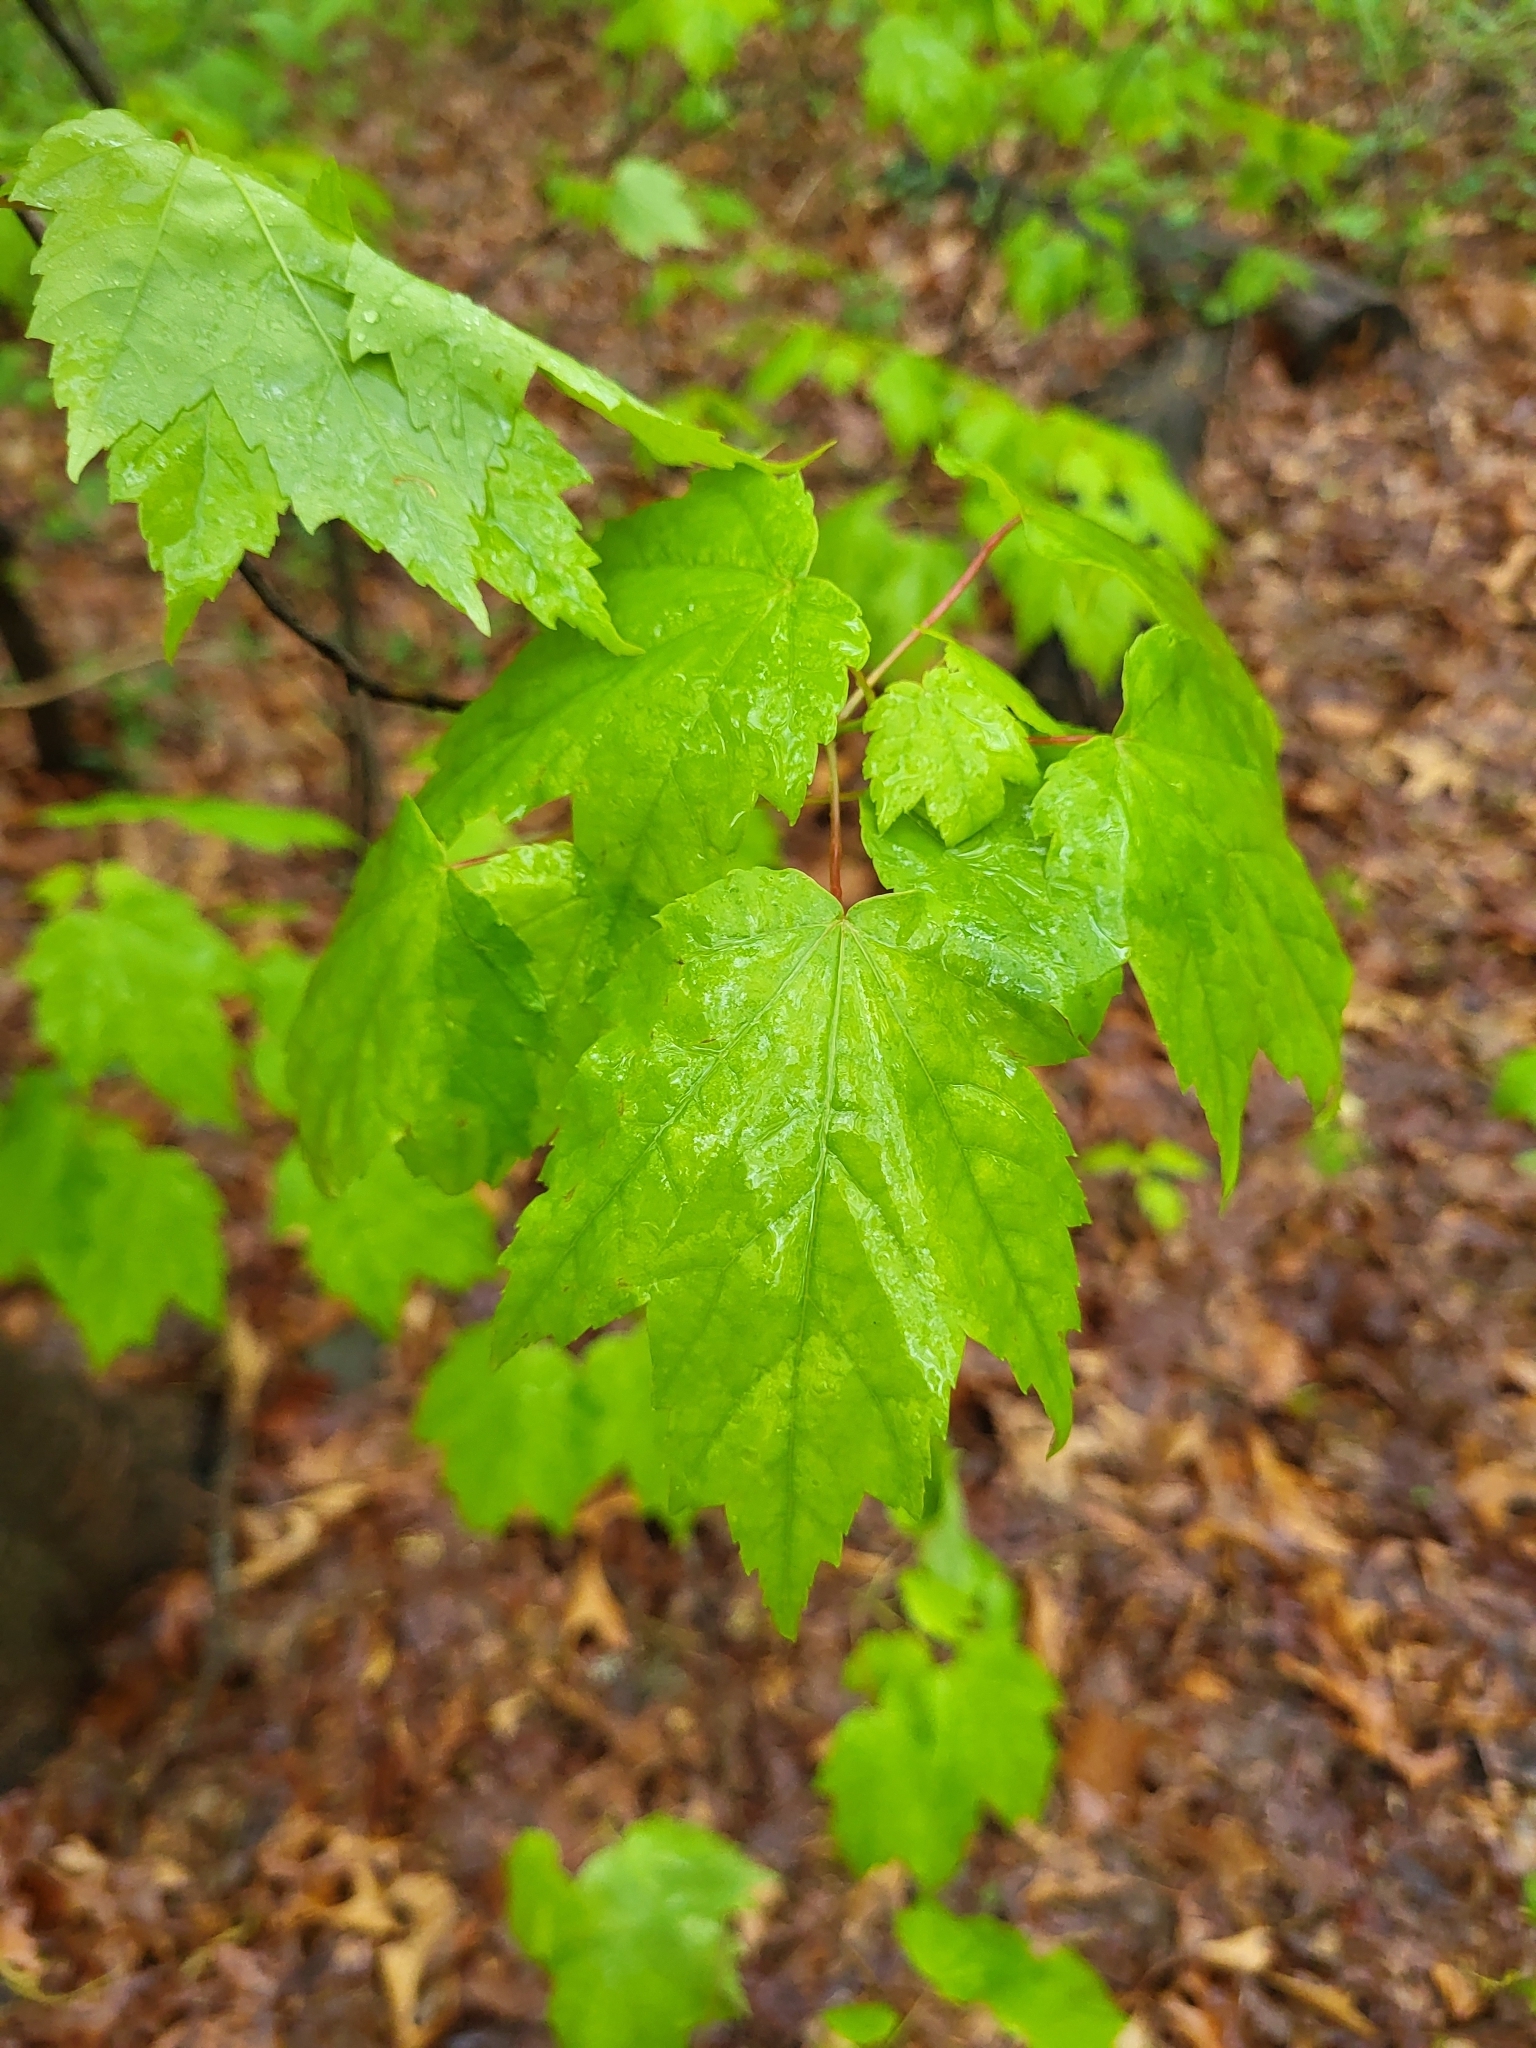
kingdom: Plantae
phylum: Tracheophyta
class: Magnoliopsida
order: Sapindales
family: Sapindaceae
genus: Acer
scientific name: Acer rubrum
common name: Red maple
